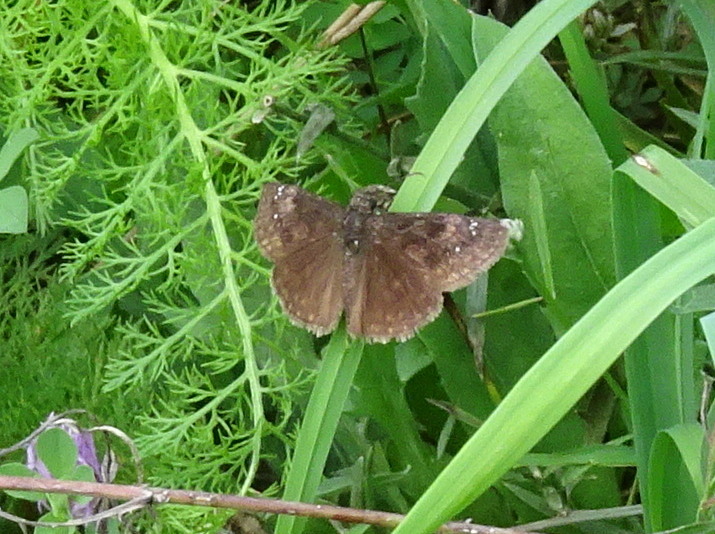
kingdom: Animalia
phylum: Arthropoda
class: Insecta
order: Lepidoptera
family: Hesperiidae
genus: Erynnis
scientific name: Erynnis baptisiae
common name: Wild indigo duskywing
